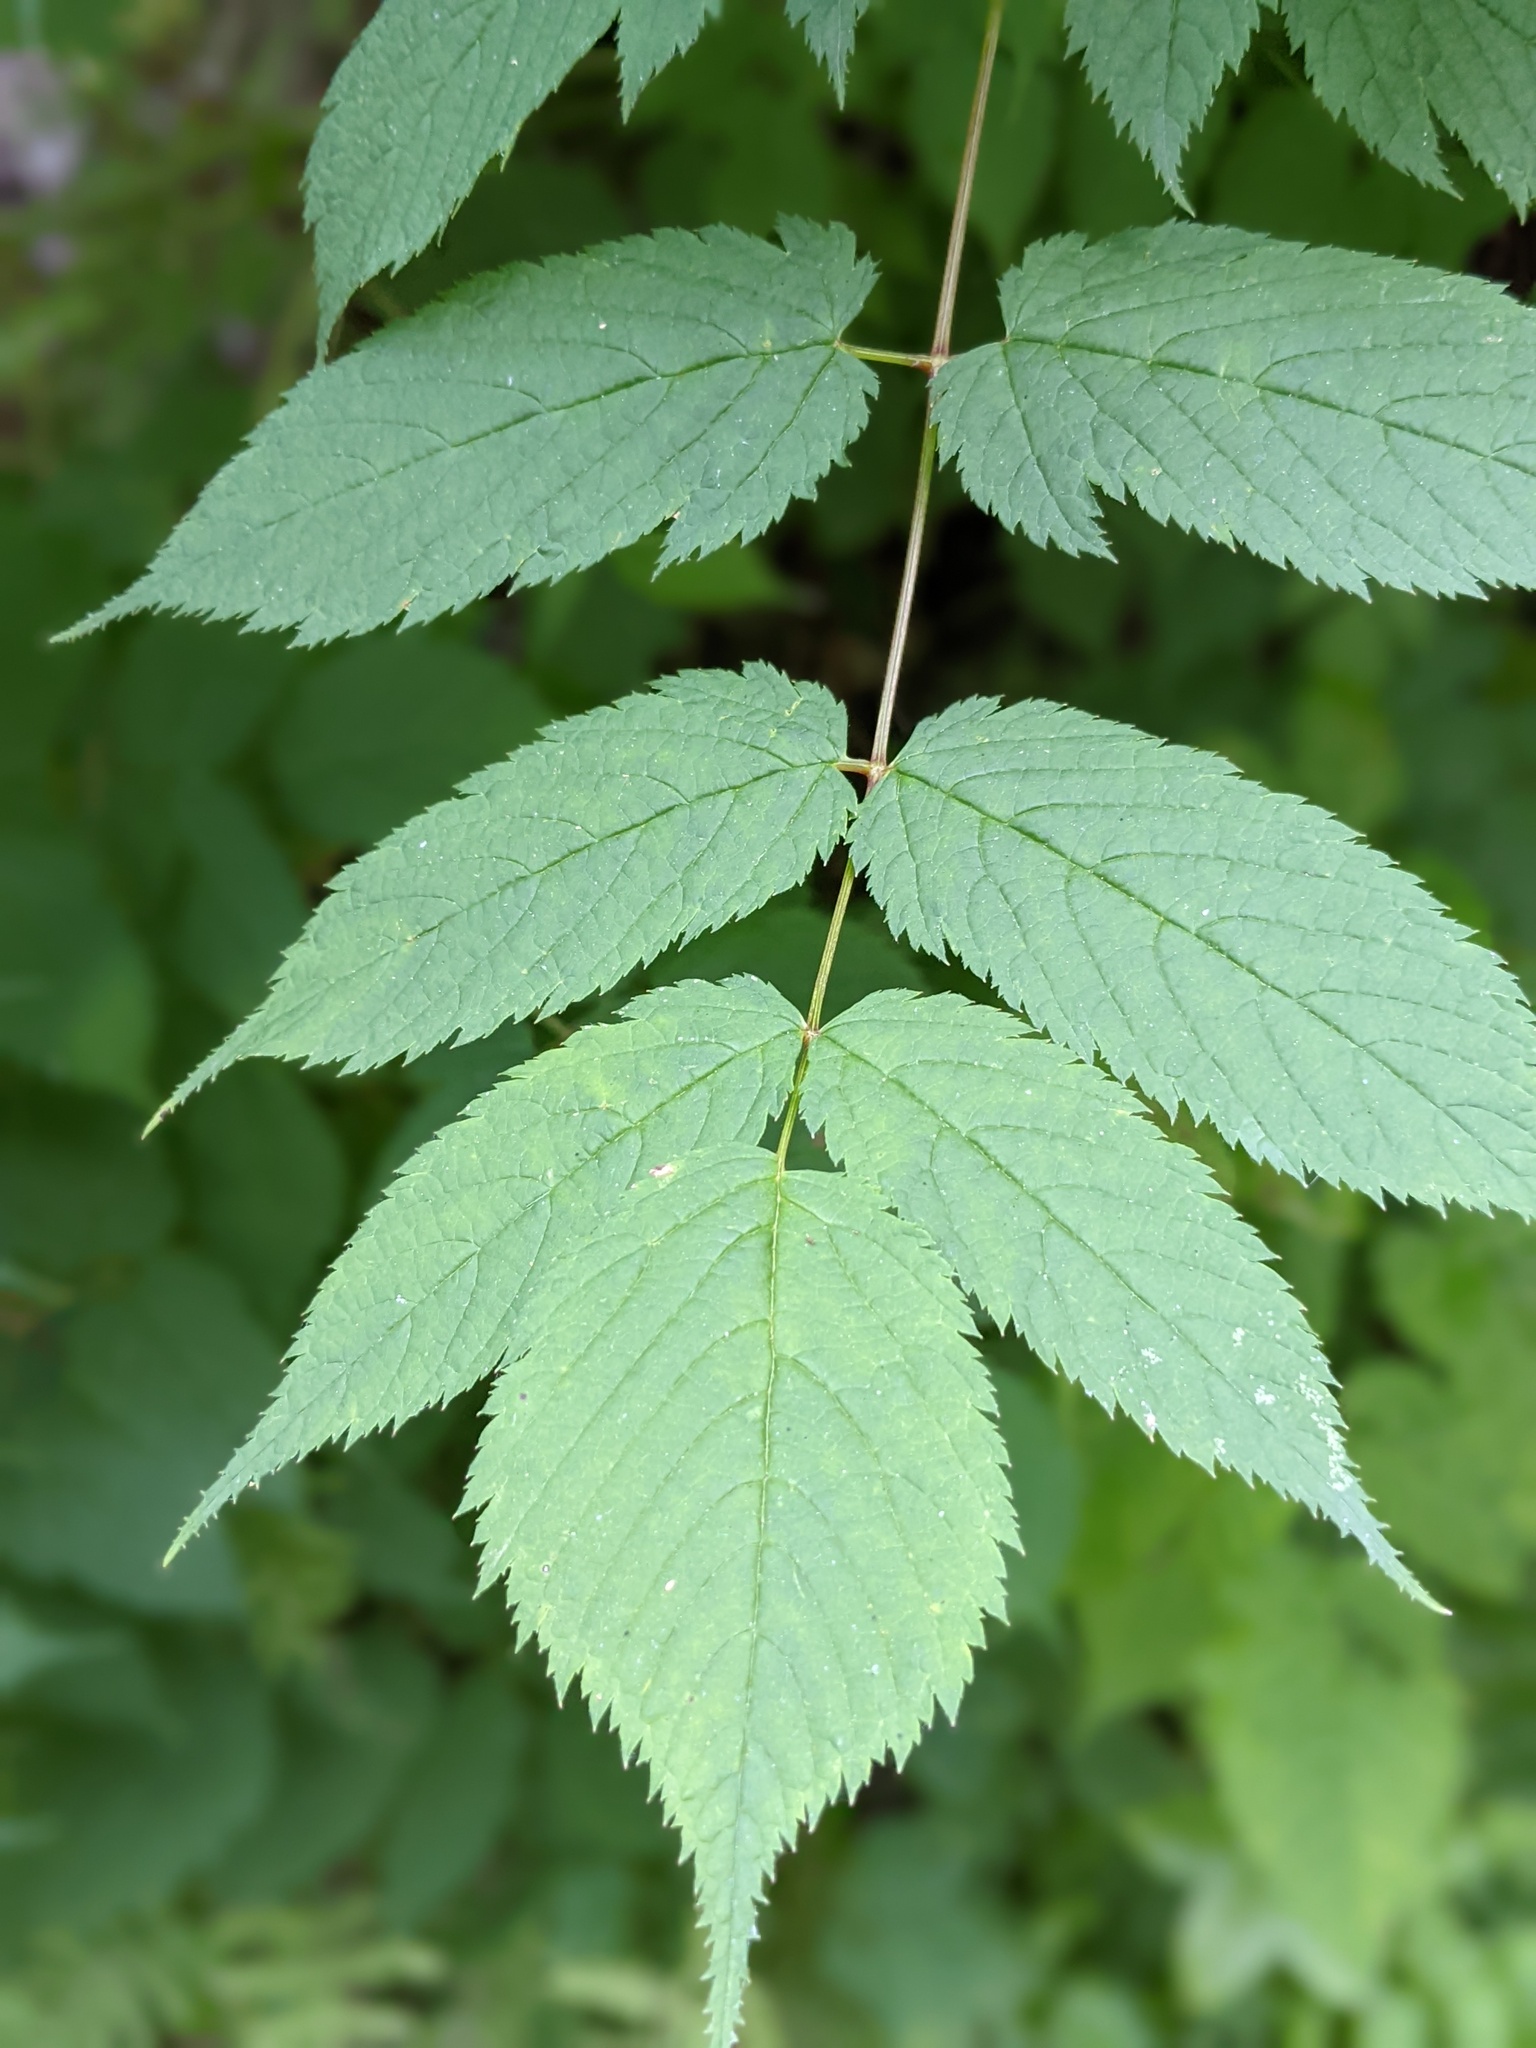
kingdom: Plantae
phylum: Tracheophyta
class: Magnoliopsida
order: Rosales
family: Rosaceae
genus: Aruncus
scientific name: Aruncus dioicus
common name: Buck's-beard
